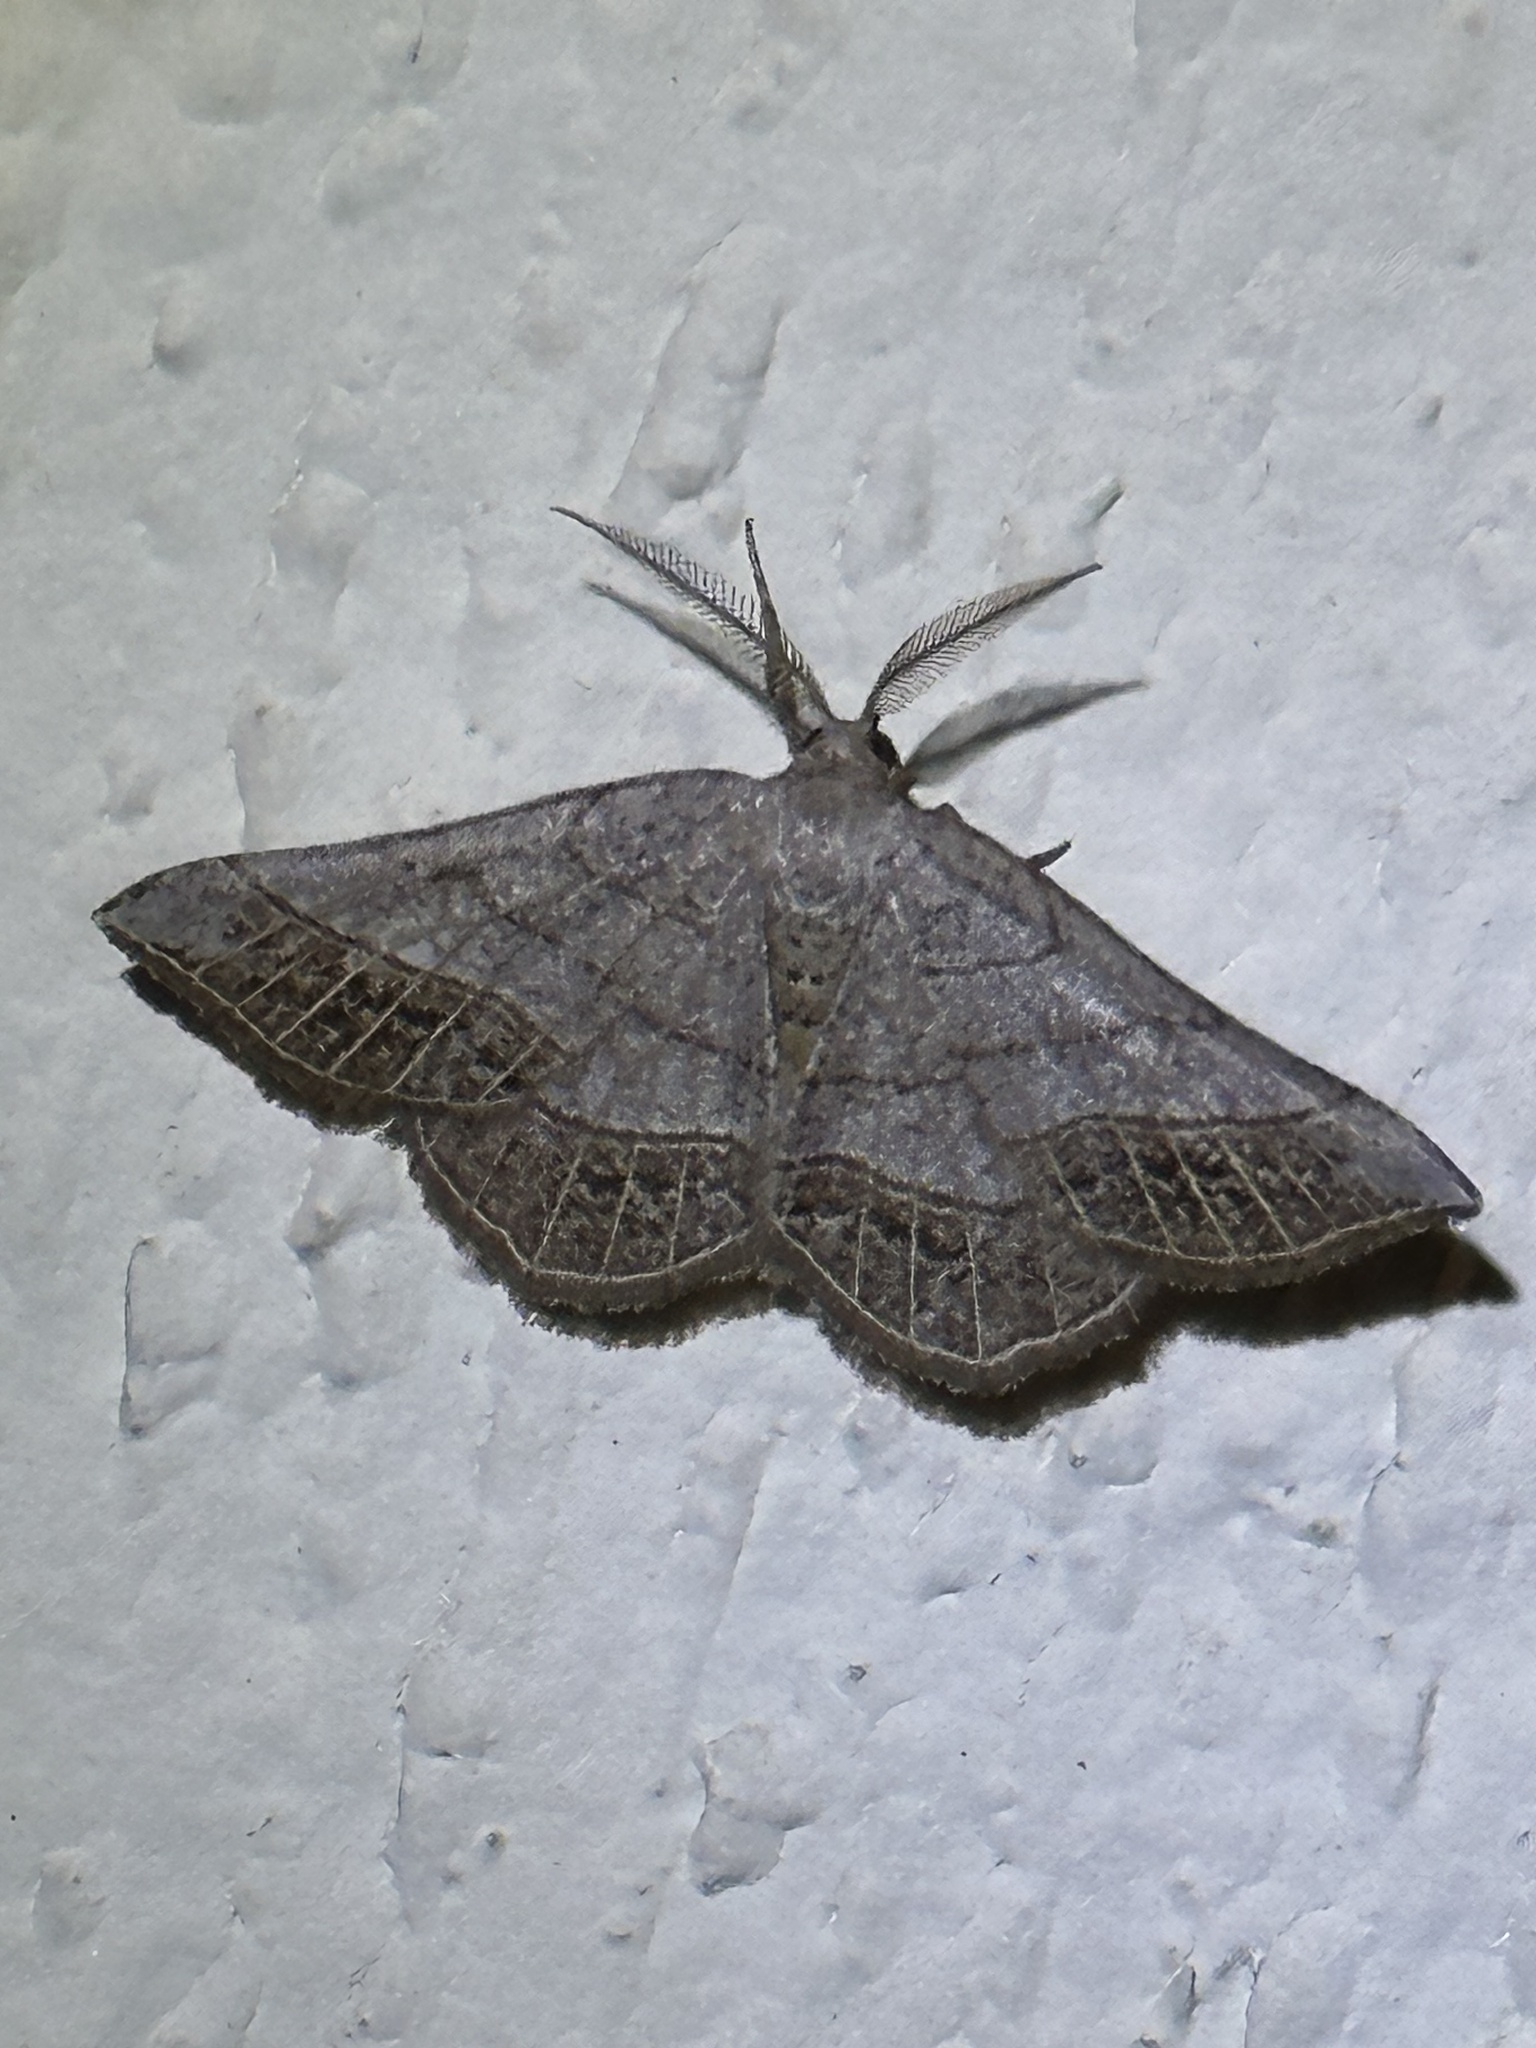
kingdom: Animalia
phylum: Arthropoda
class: Insecta
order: Lepidoptera
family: Geometridae
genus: Eumacaria
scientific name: Eumacaria madopata
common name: Brown-bordered geometer
